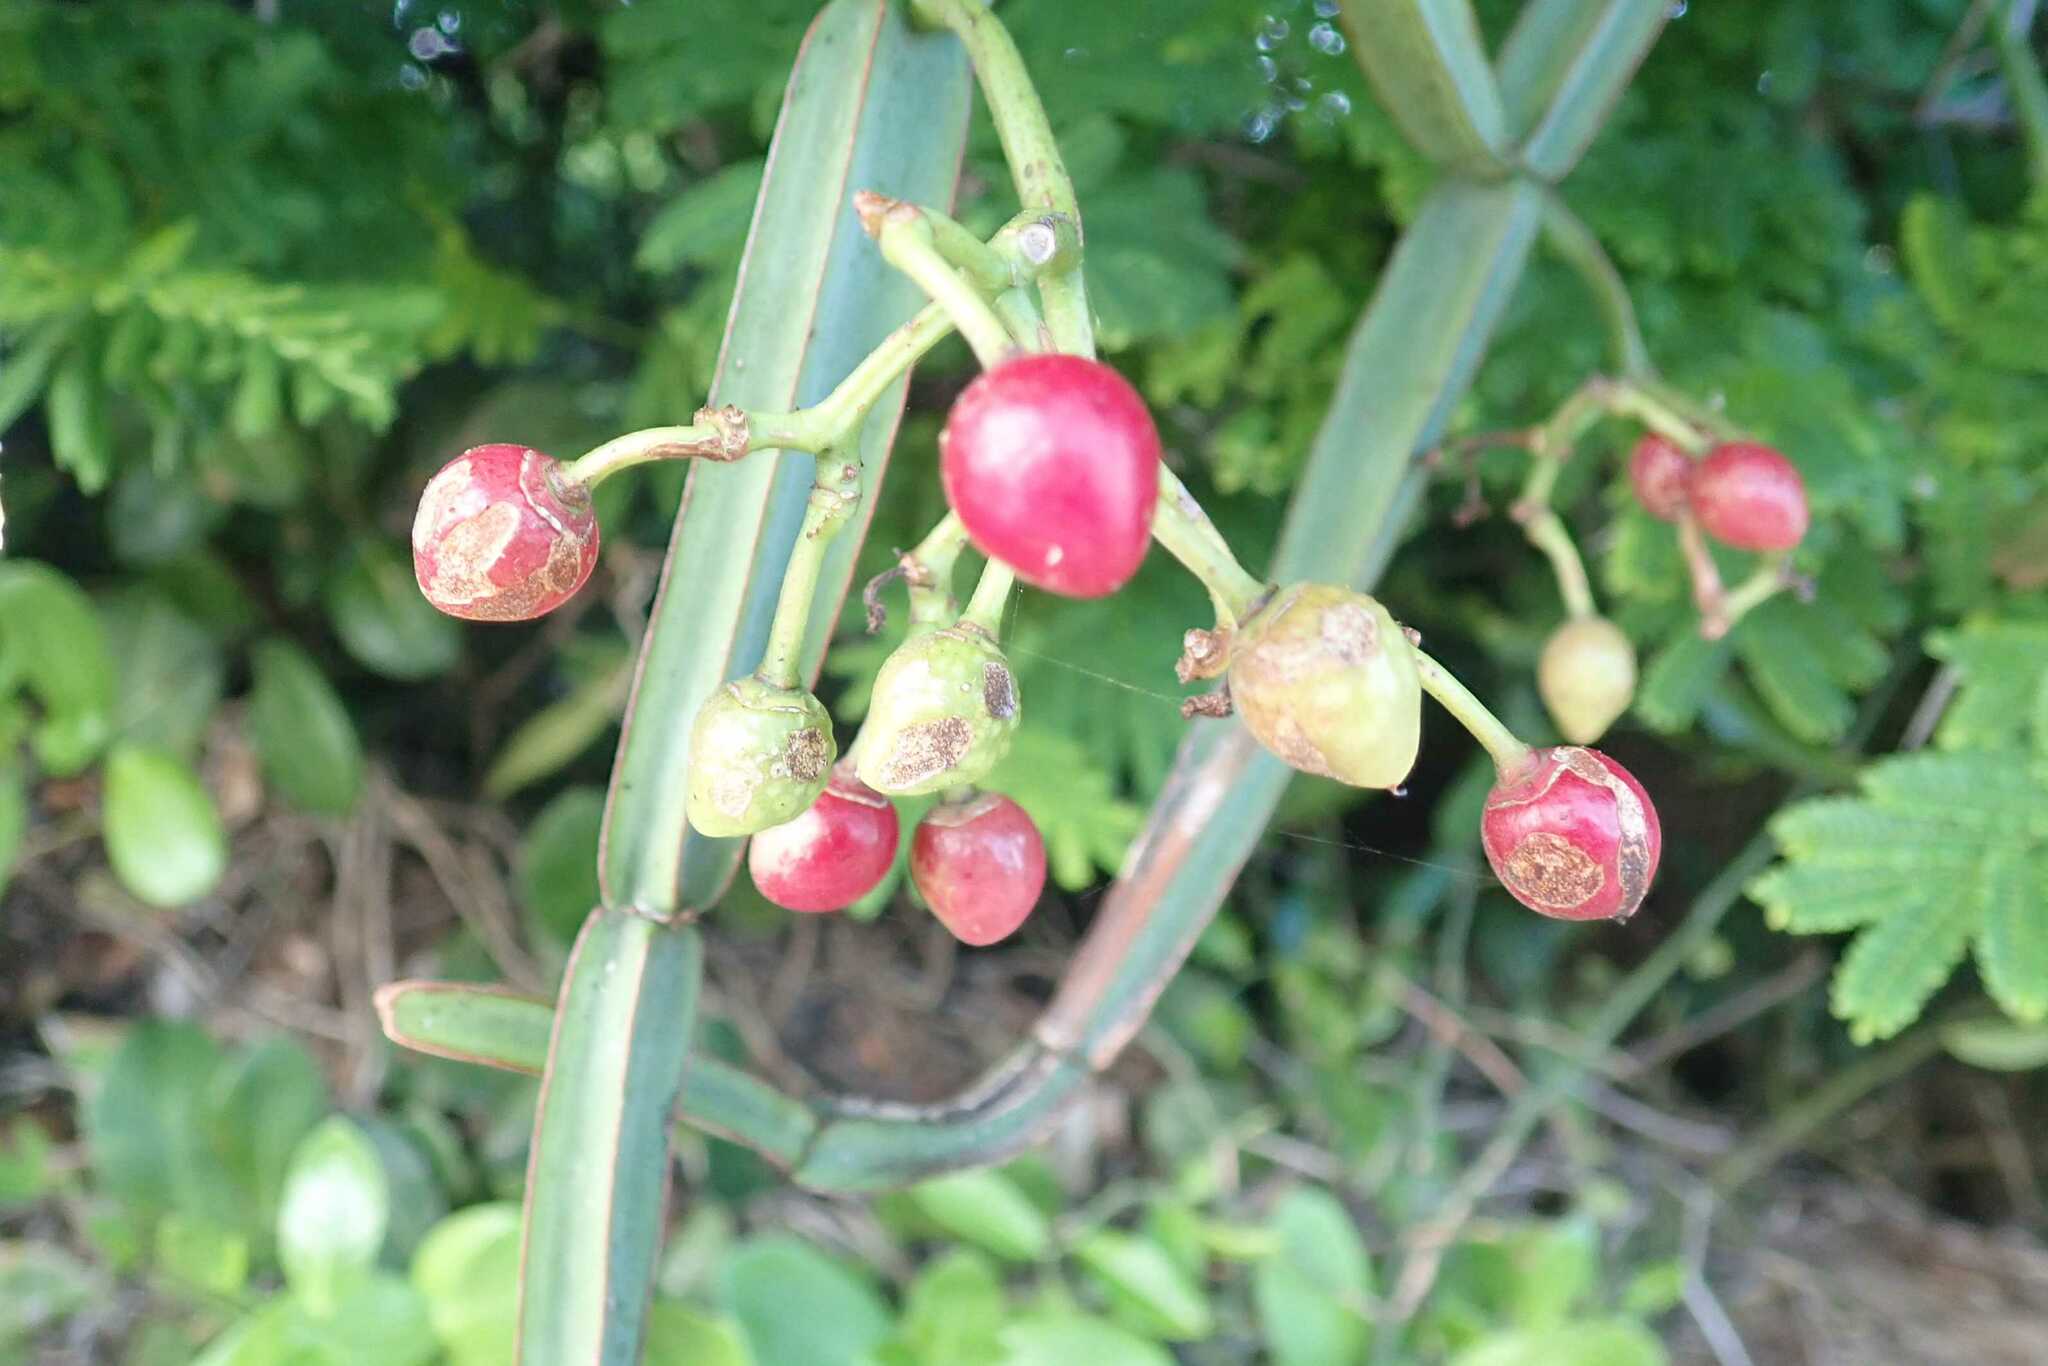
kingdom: Plantae
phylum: Tracheophyta
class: Magnoliopsida
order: Vitales
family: Vitaceae
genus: Cissus
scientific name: Cissus quadrangularis
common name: Veldt-grape
